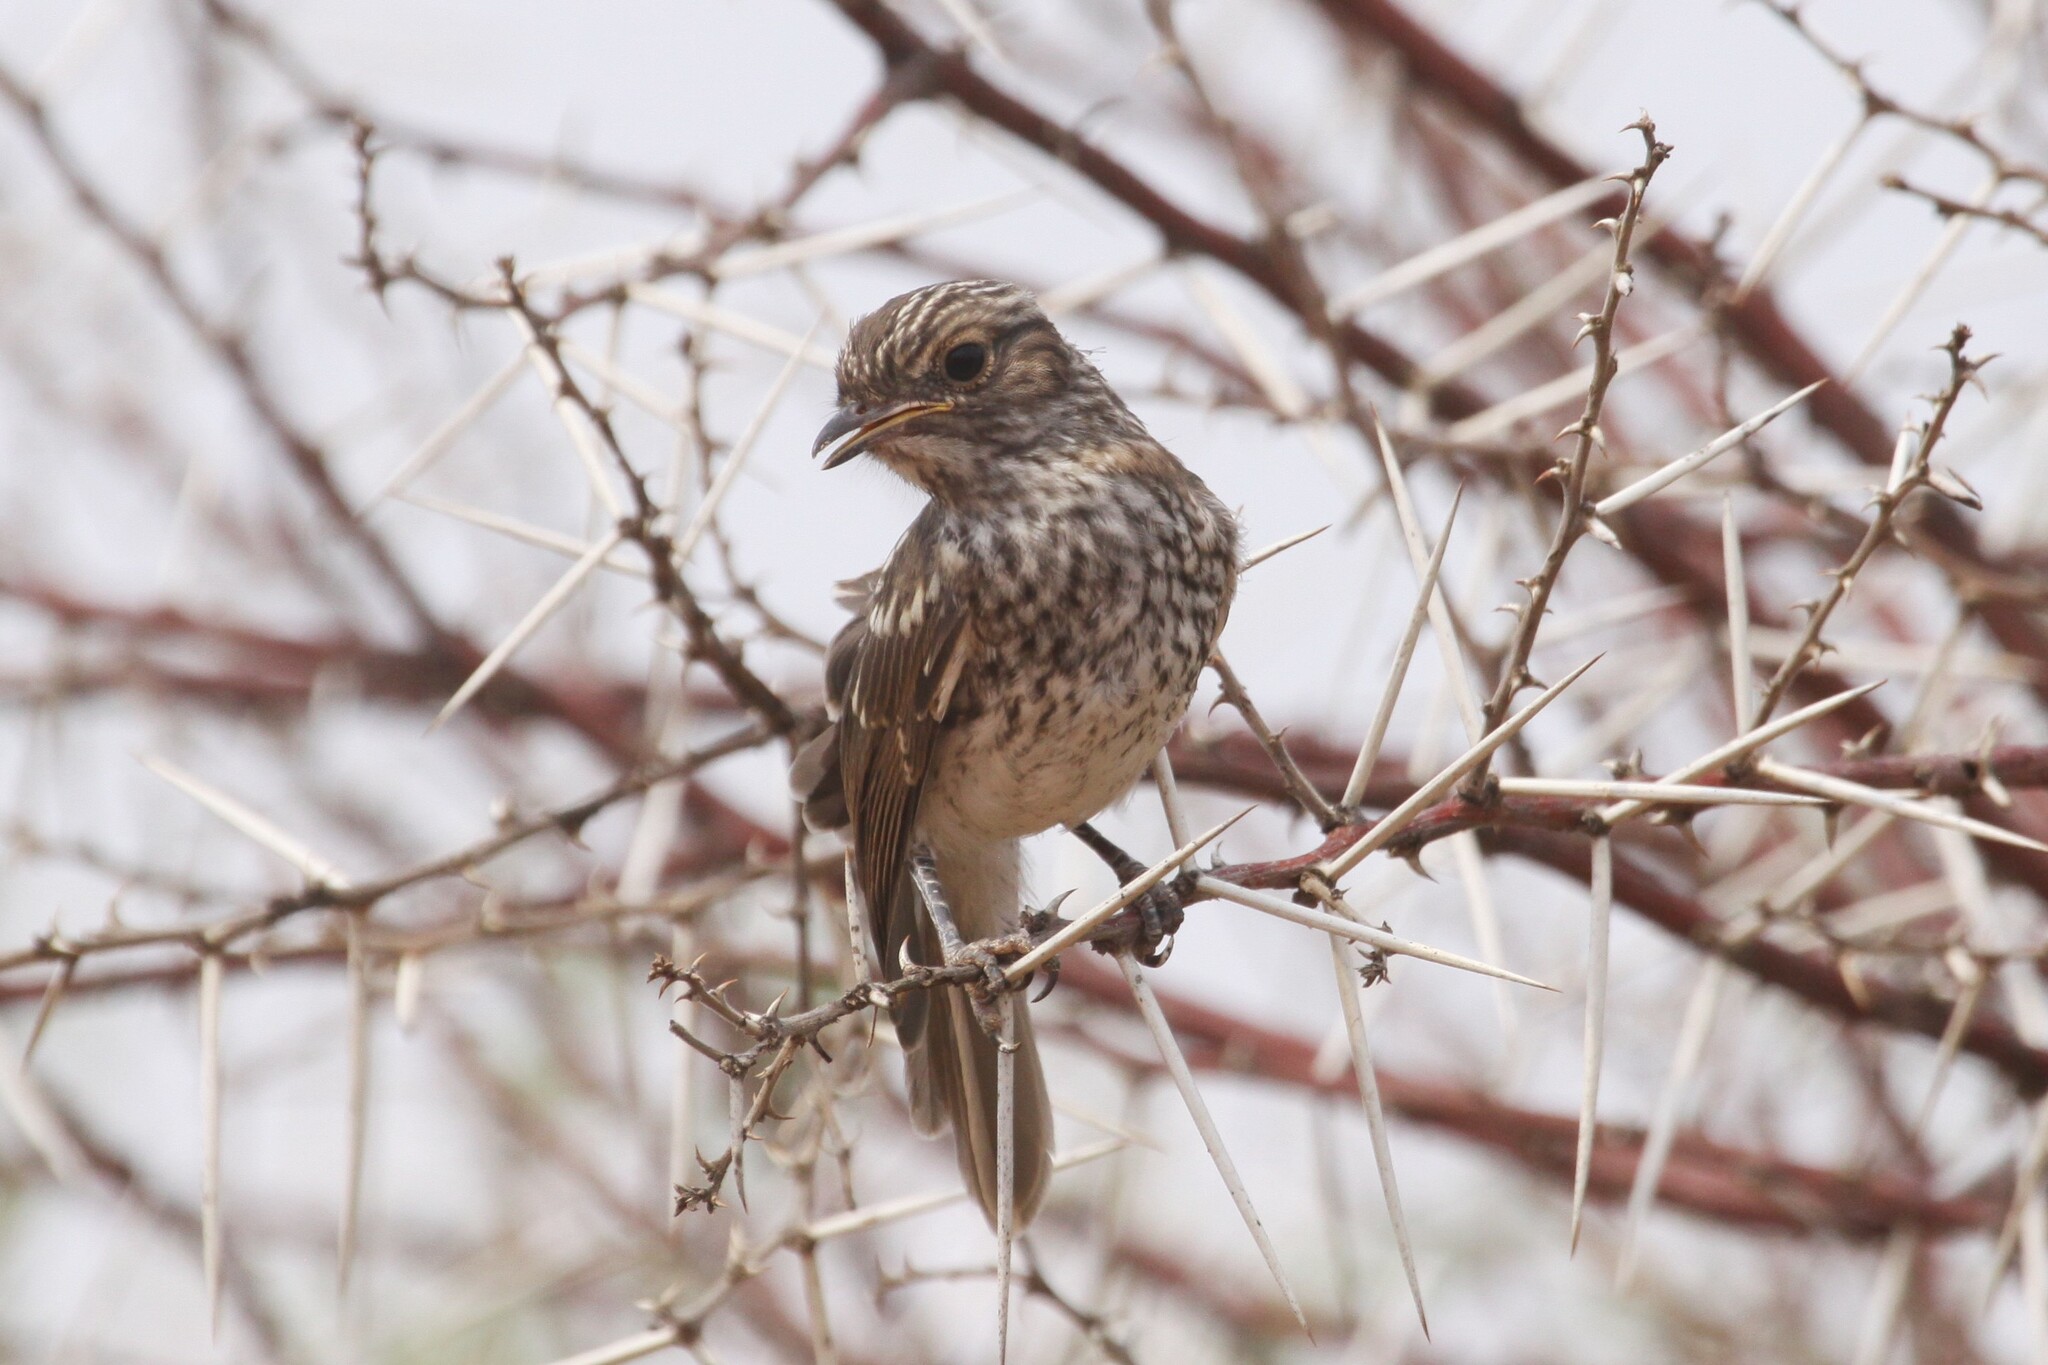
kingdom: Animalia
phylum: Chordata
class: Aves
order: Passeriformes
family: Muscicapidae
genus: Bradornis
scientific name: Bradornis mariquensis
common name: Marico flycatcher
